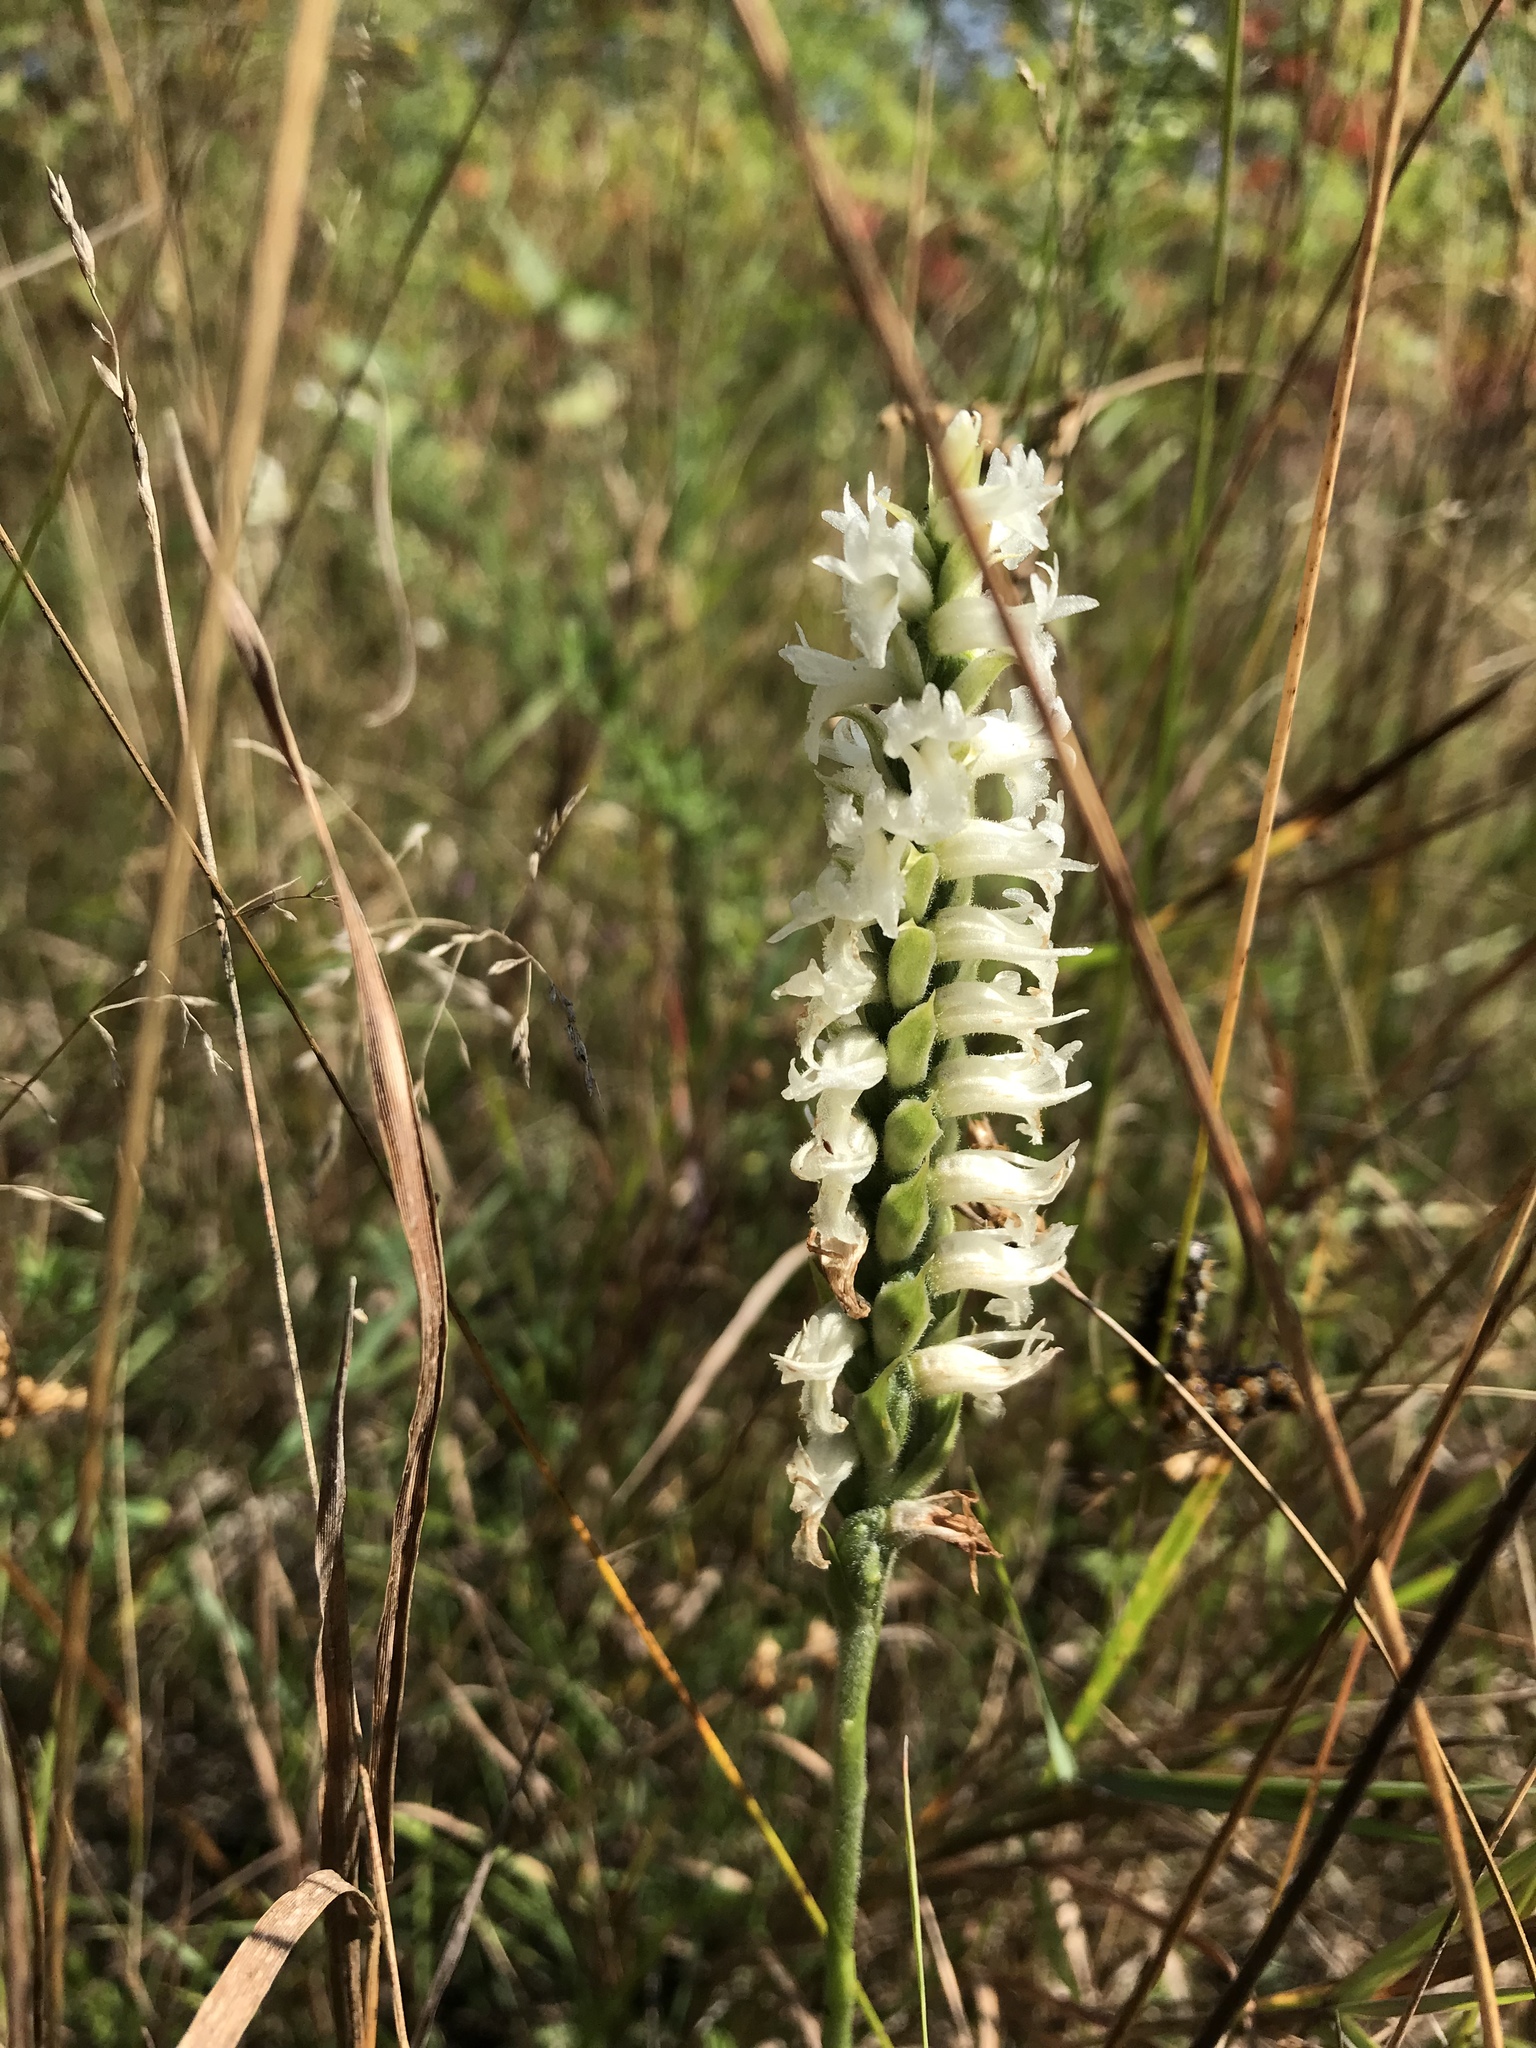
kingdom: Plantae
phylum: Tracheophyta
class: Liliopsida
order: Asparagales
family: Orchidaceae
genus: Spiranthes
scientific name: Spiranthes incurva
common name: Sphinx ladies'-tresses
